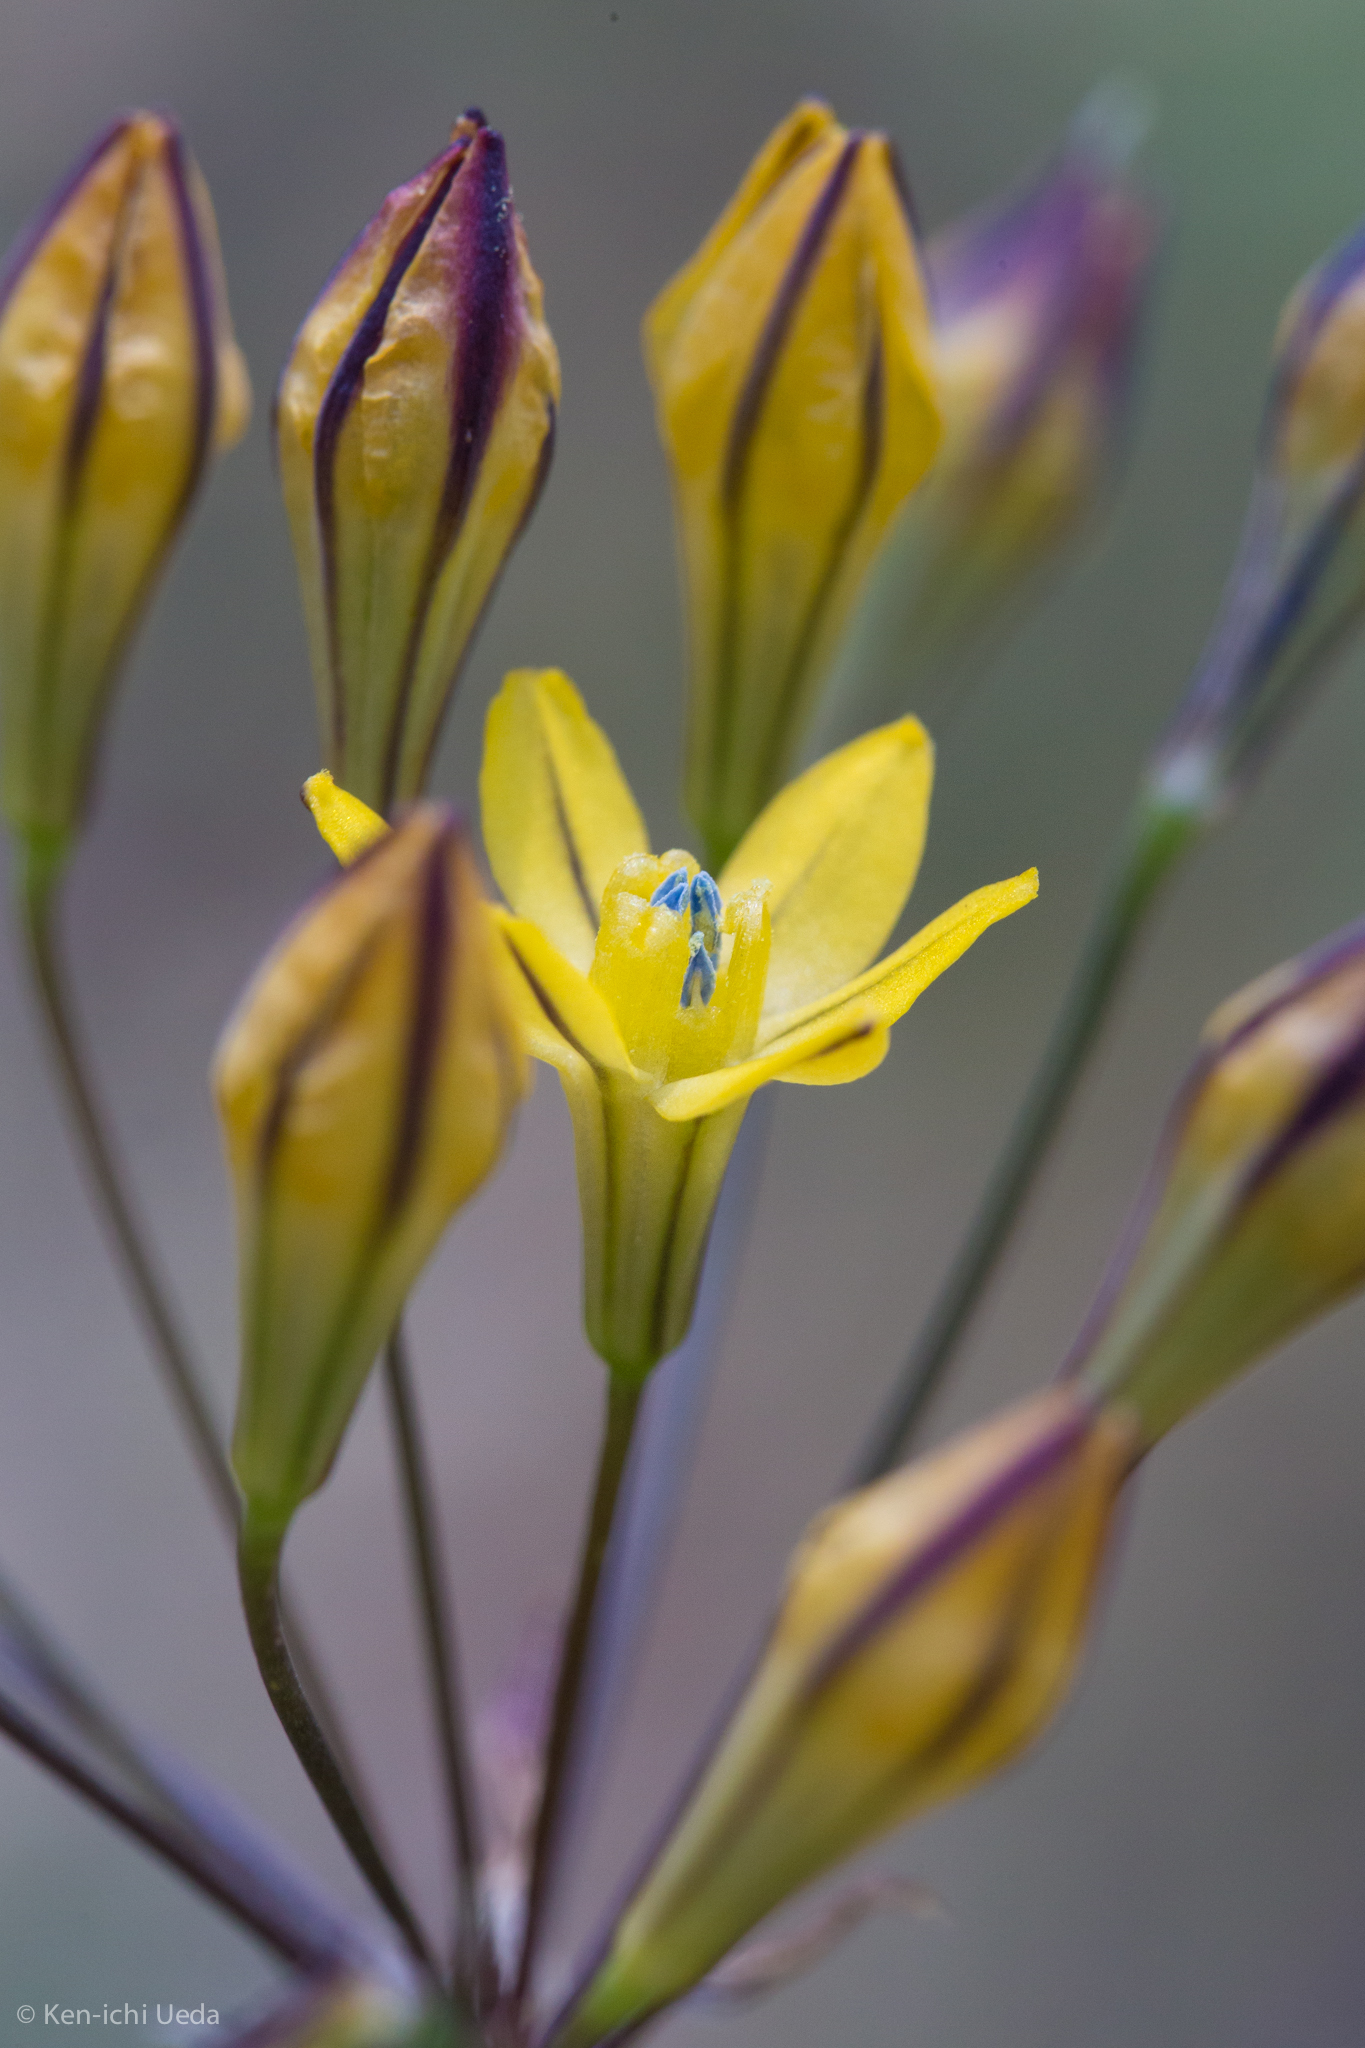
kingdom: Plantae
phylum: Tracheophyta
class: Liliopsida
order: Asparagales
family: Asparagaceae
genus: Triteleia
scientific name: Triteleia lugens
